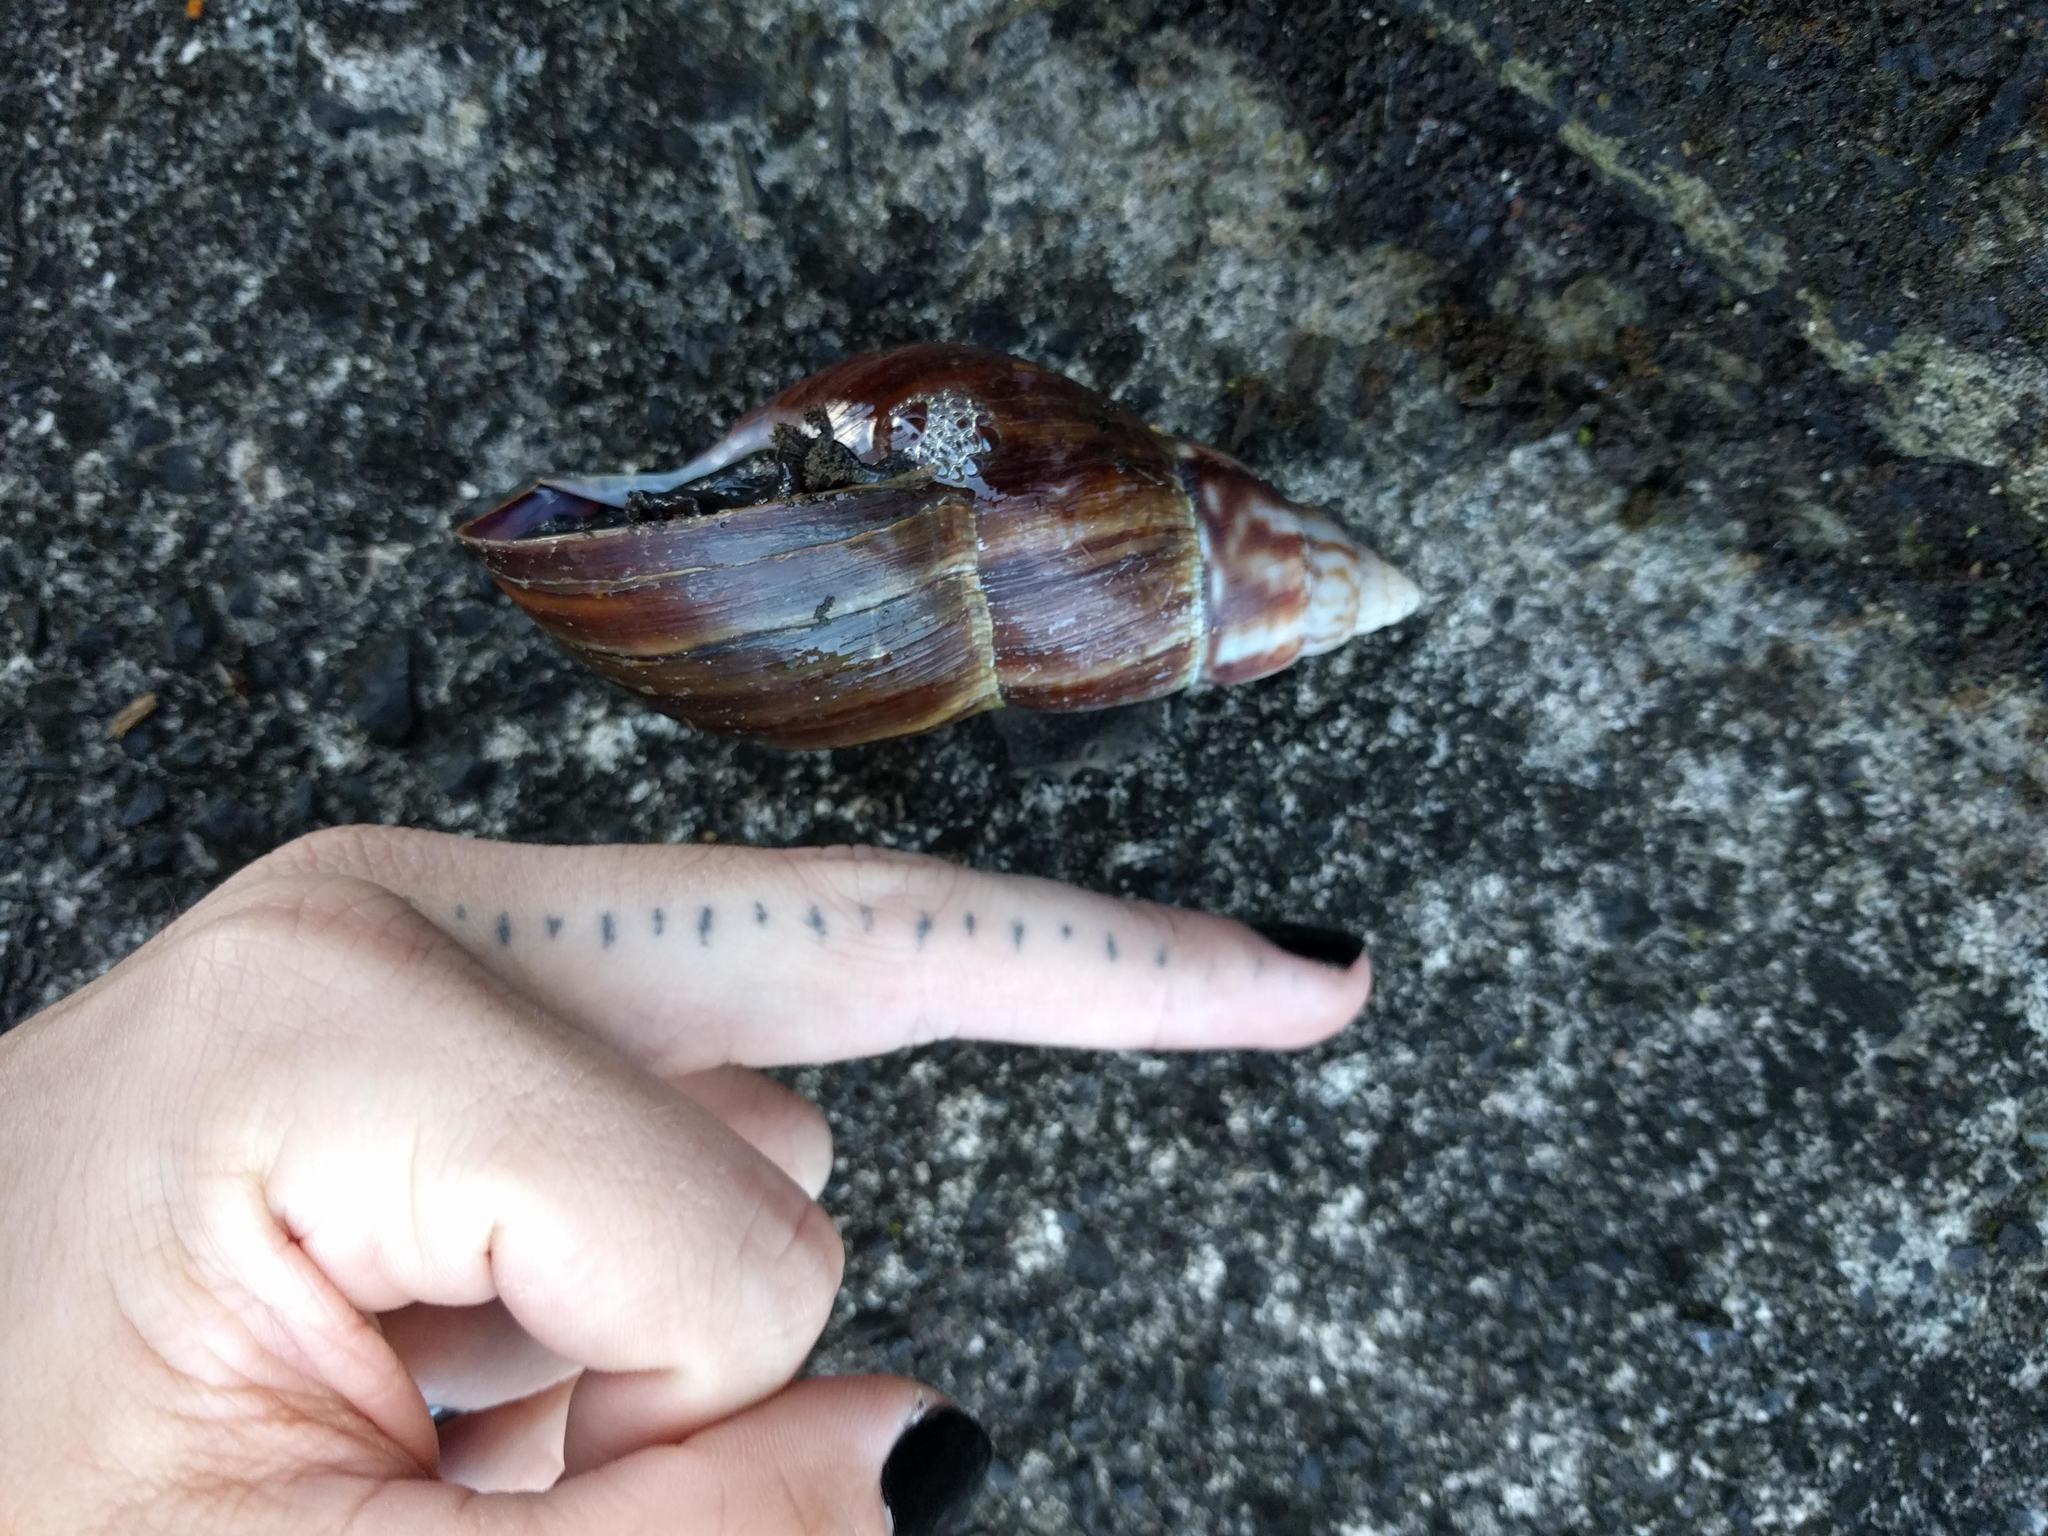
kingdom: Animalia
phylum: Mollusca
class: Gastropoda
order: Stylommatophora
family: Achatinidae
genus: Lissachatina
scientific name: Lissachatina fulica
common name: Giant african snail
